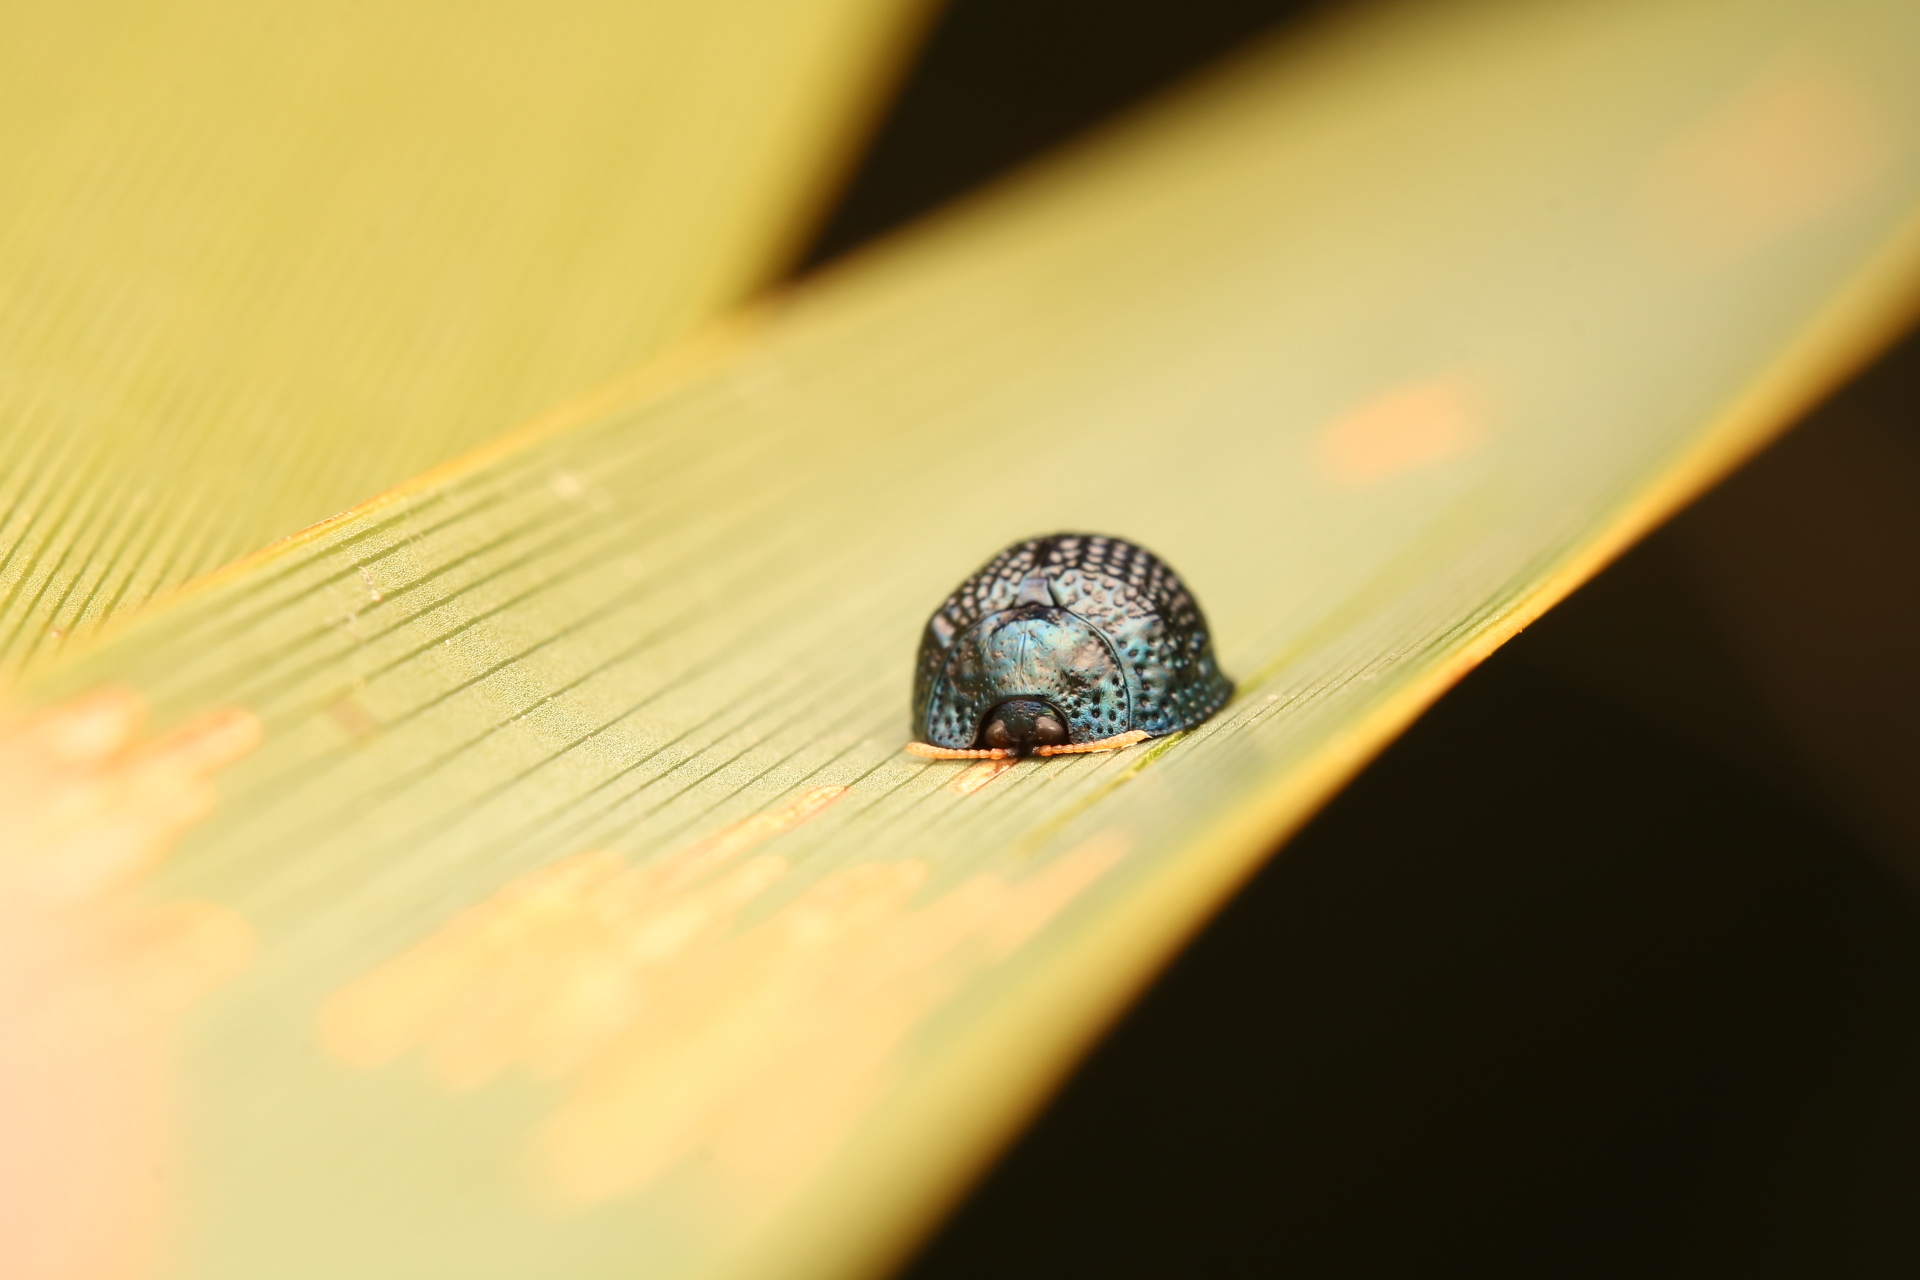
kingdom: Animalia
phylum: Arthropoda
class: Insecta
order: Coleoptera
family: Chrysomelidae
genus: Hemisphaerota
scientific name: Hemisphaerota cyanea
